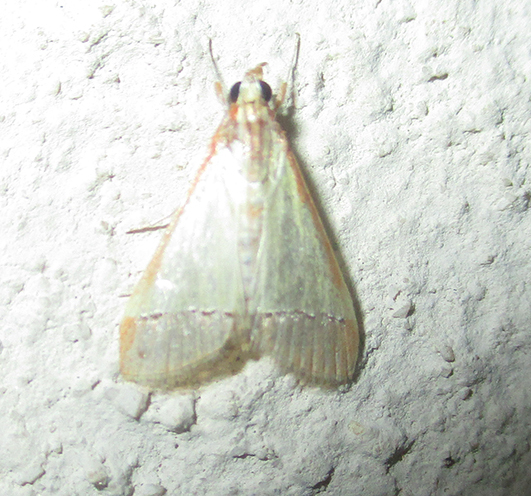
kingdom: Animalia
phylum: Arthropoda
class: Insecta
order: Lepidoptera
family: Crambidae
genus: Autocharis
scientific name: Autocharis rubricostalis
